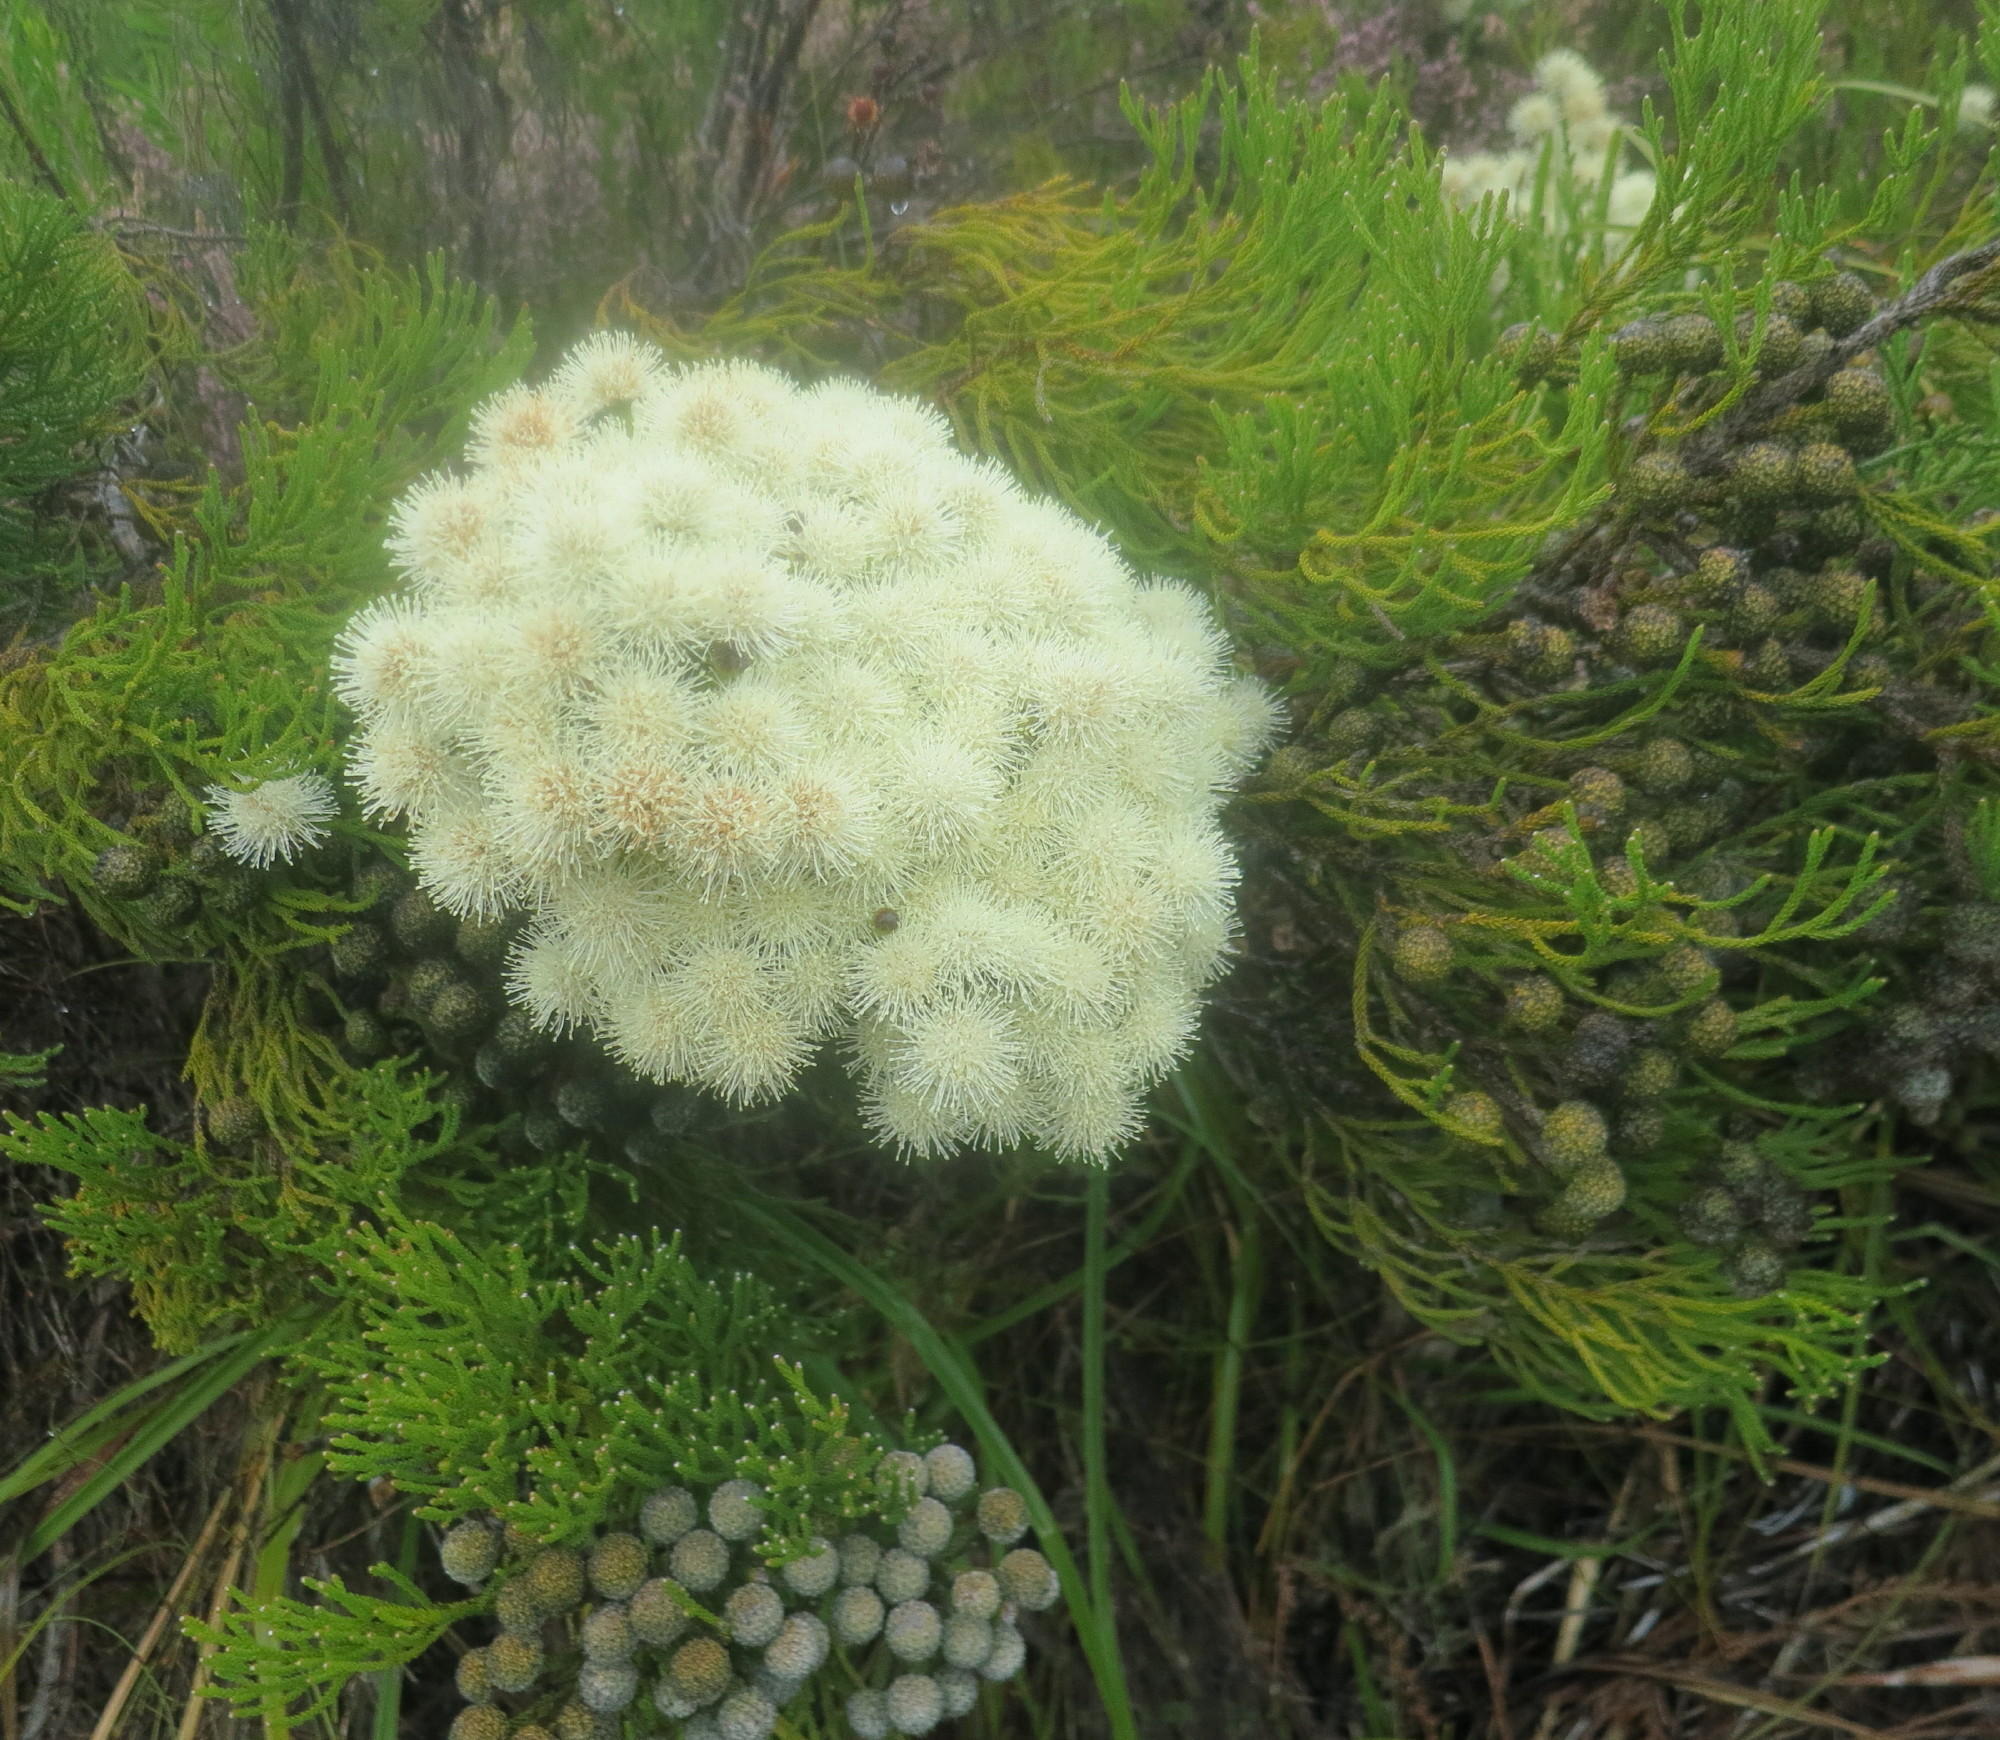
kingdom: Plantae
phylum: Tracheophyta
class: Magnoliopsida
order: Bruniales
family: Bruniaceae
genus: Brunia
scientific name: Brunia noduliflora
